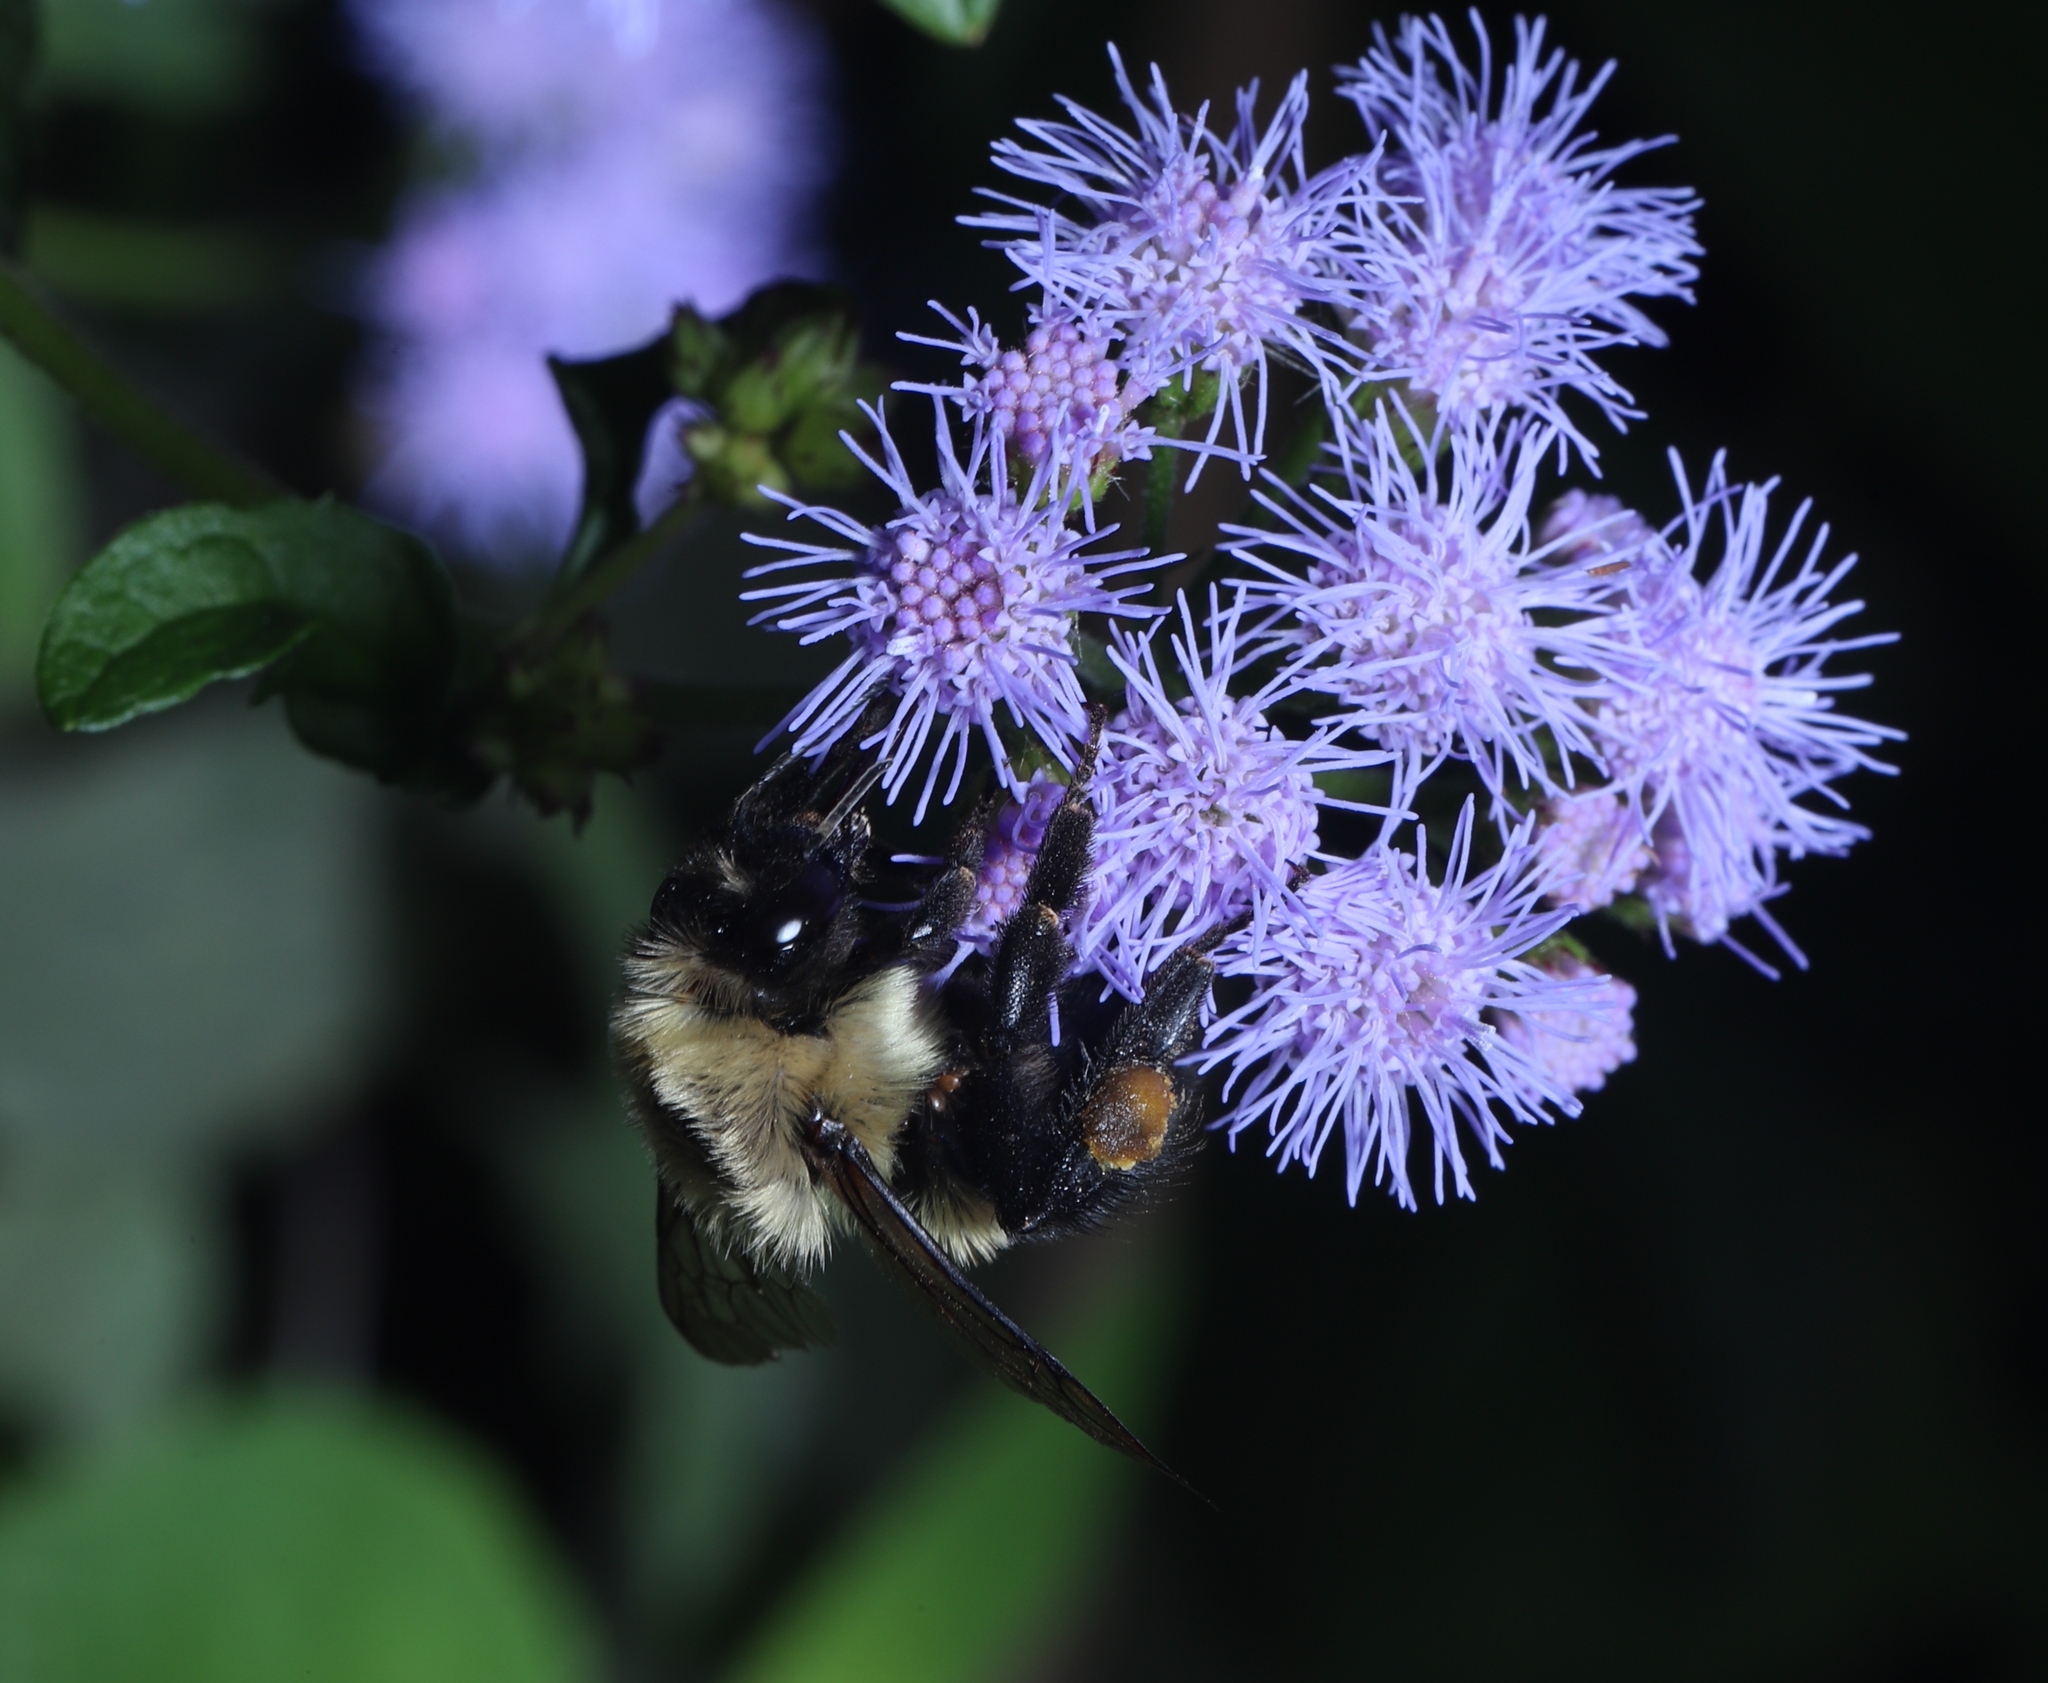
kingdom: Animalia
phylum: Arthropoda
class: Insecta
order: Hymenoptera
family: Apidae
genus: Bombus
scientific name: Bombus impatiens
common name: Common eastern bumble bee
